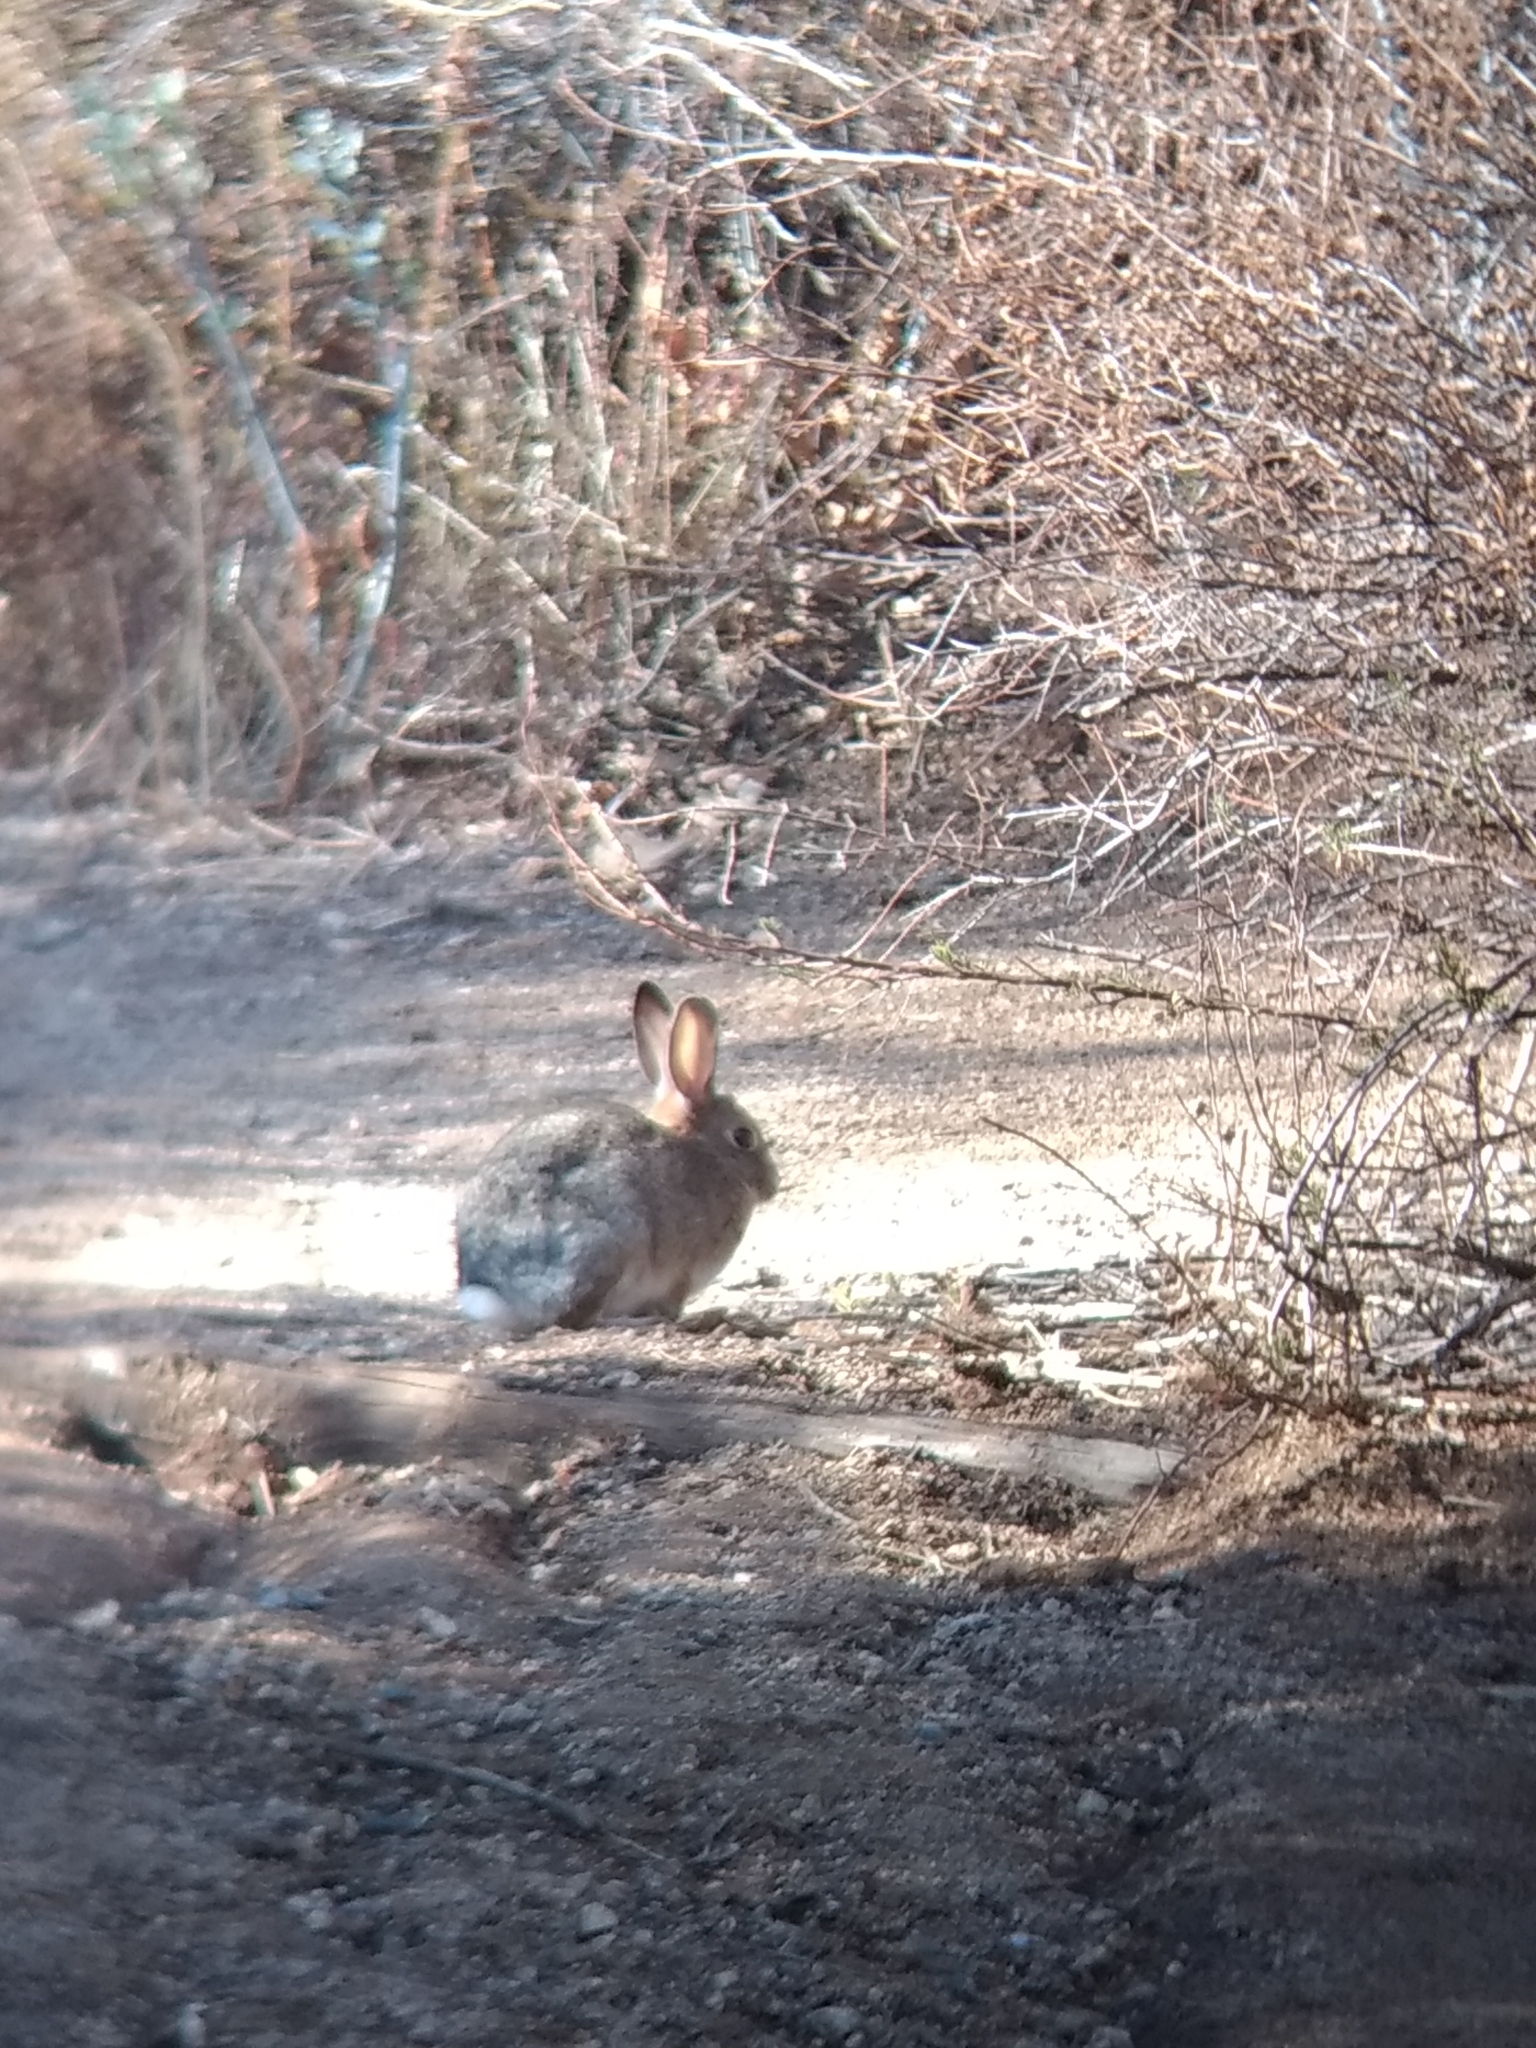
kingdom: Animalia
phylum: Chordata
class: Mammalia
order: Lagomorpha
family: Leporidae
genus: Sylvilagus
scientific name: Sylvilagus audubonii
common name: Desert cottontail
